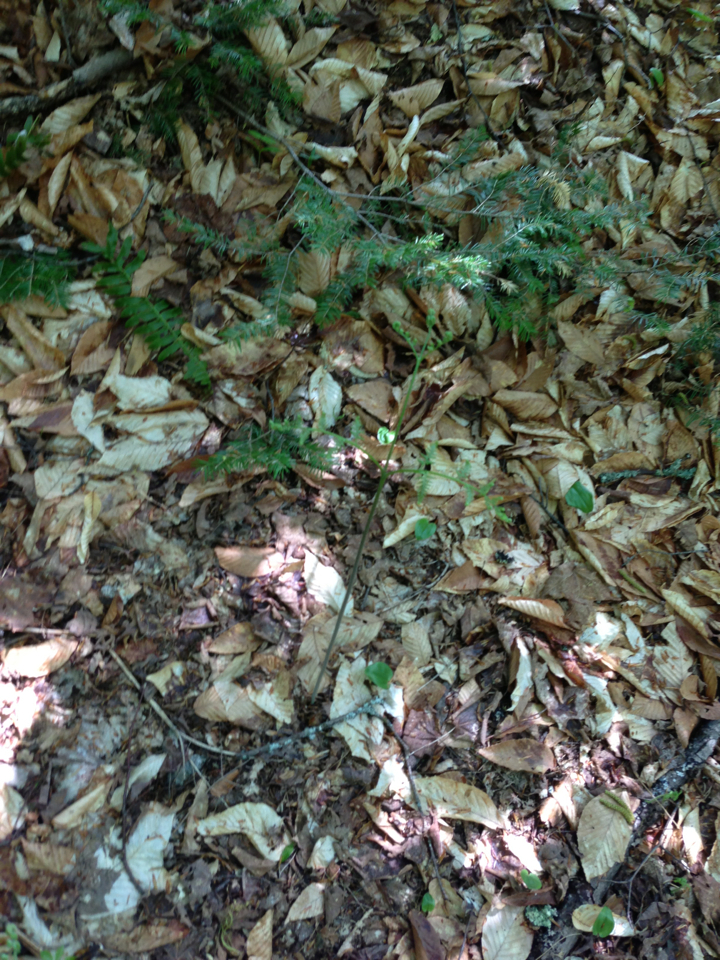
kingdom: Plantae
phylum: Tracheophyta
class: Polypodiopsida
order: Polypodiales
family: Dennstaedtiaceae
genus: Pteridium
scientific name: Pteridium aquilinum
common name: Bracken
